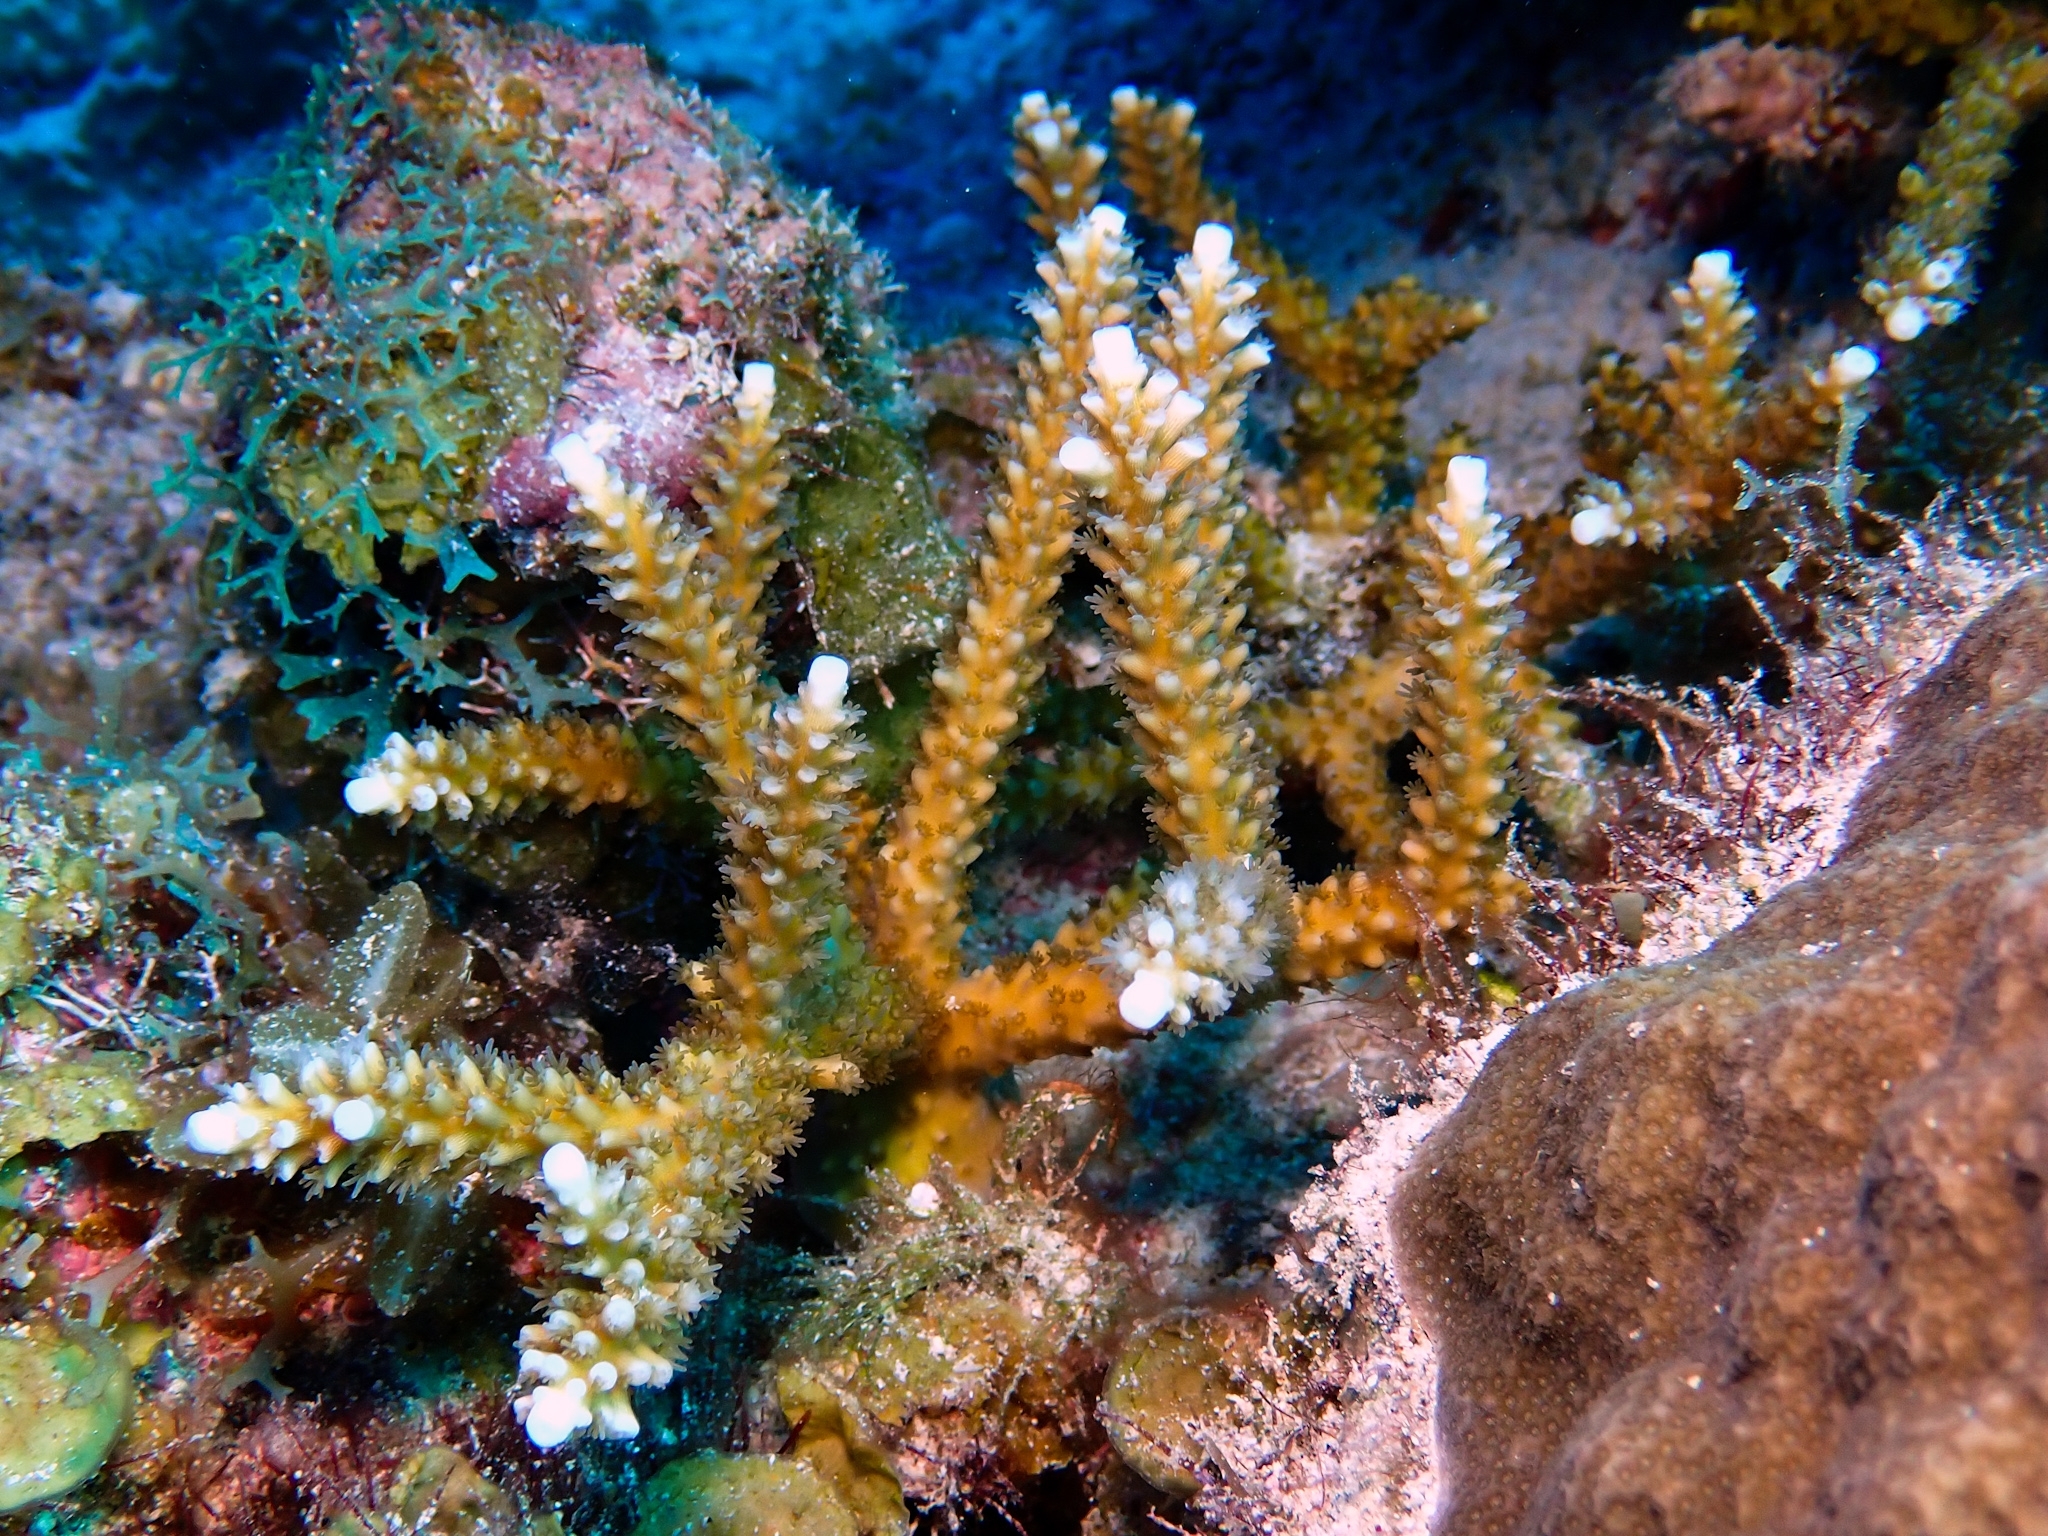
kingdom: Animalia
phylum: Cnidaria
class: Anthozoa
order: Scleractinia
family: Acroporidae
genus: Acropora
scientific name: Acropora cervicornis
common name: Staghorn coral
